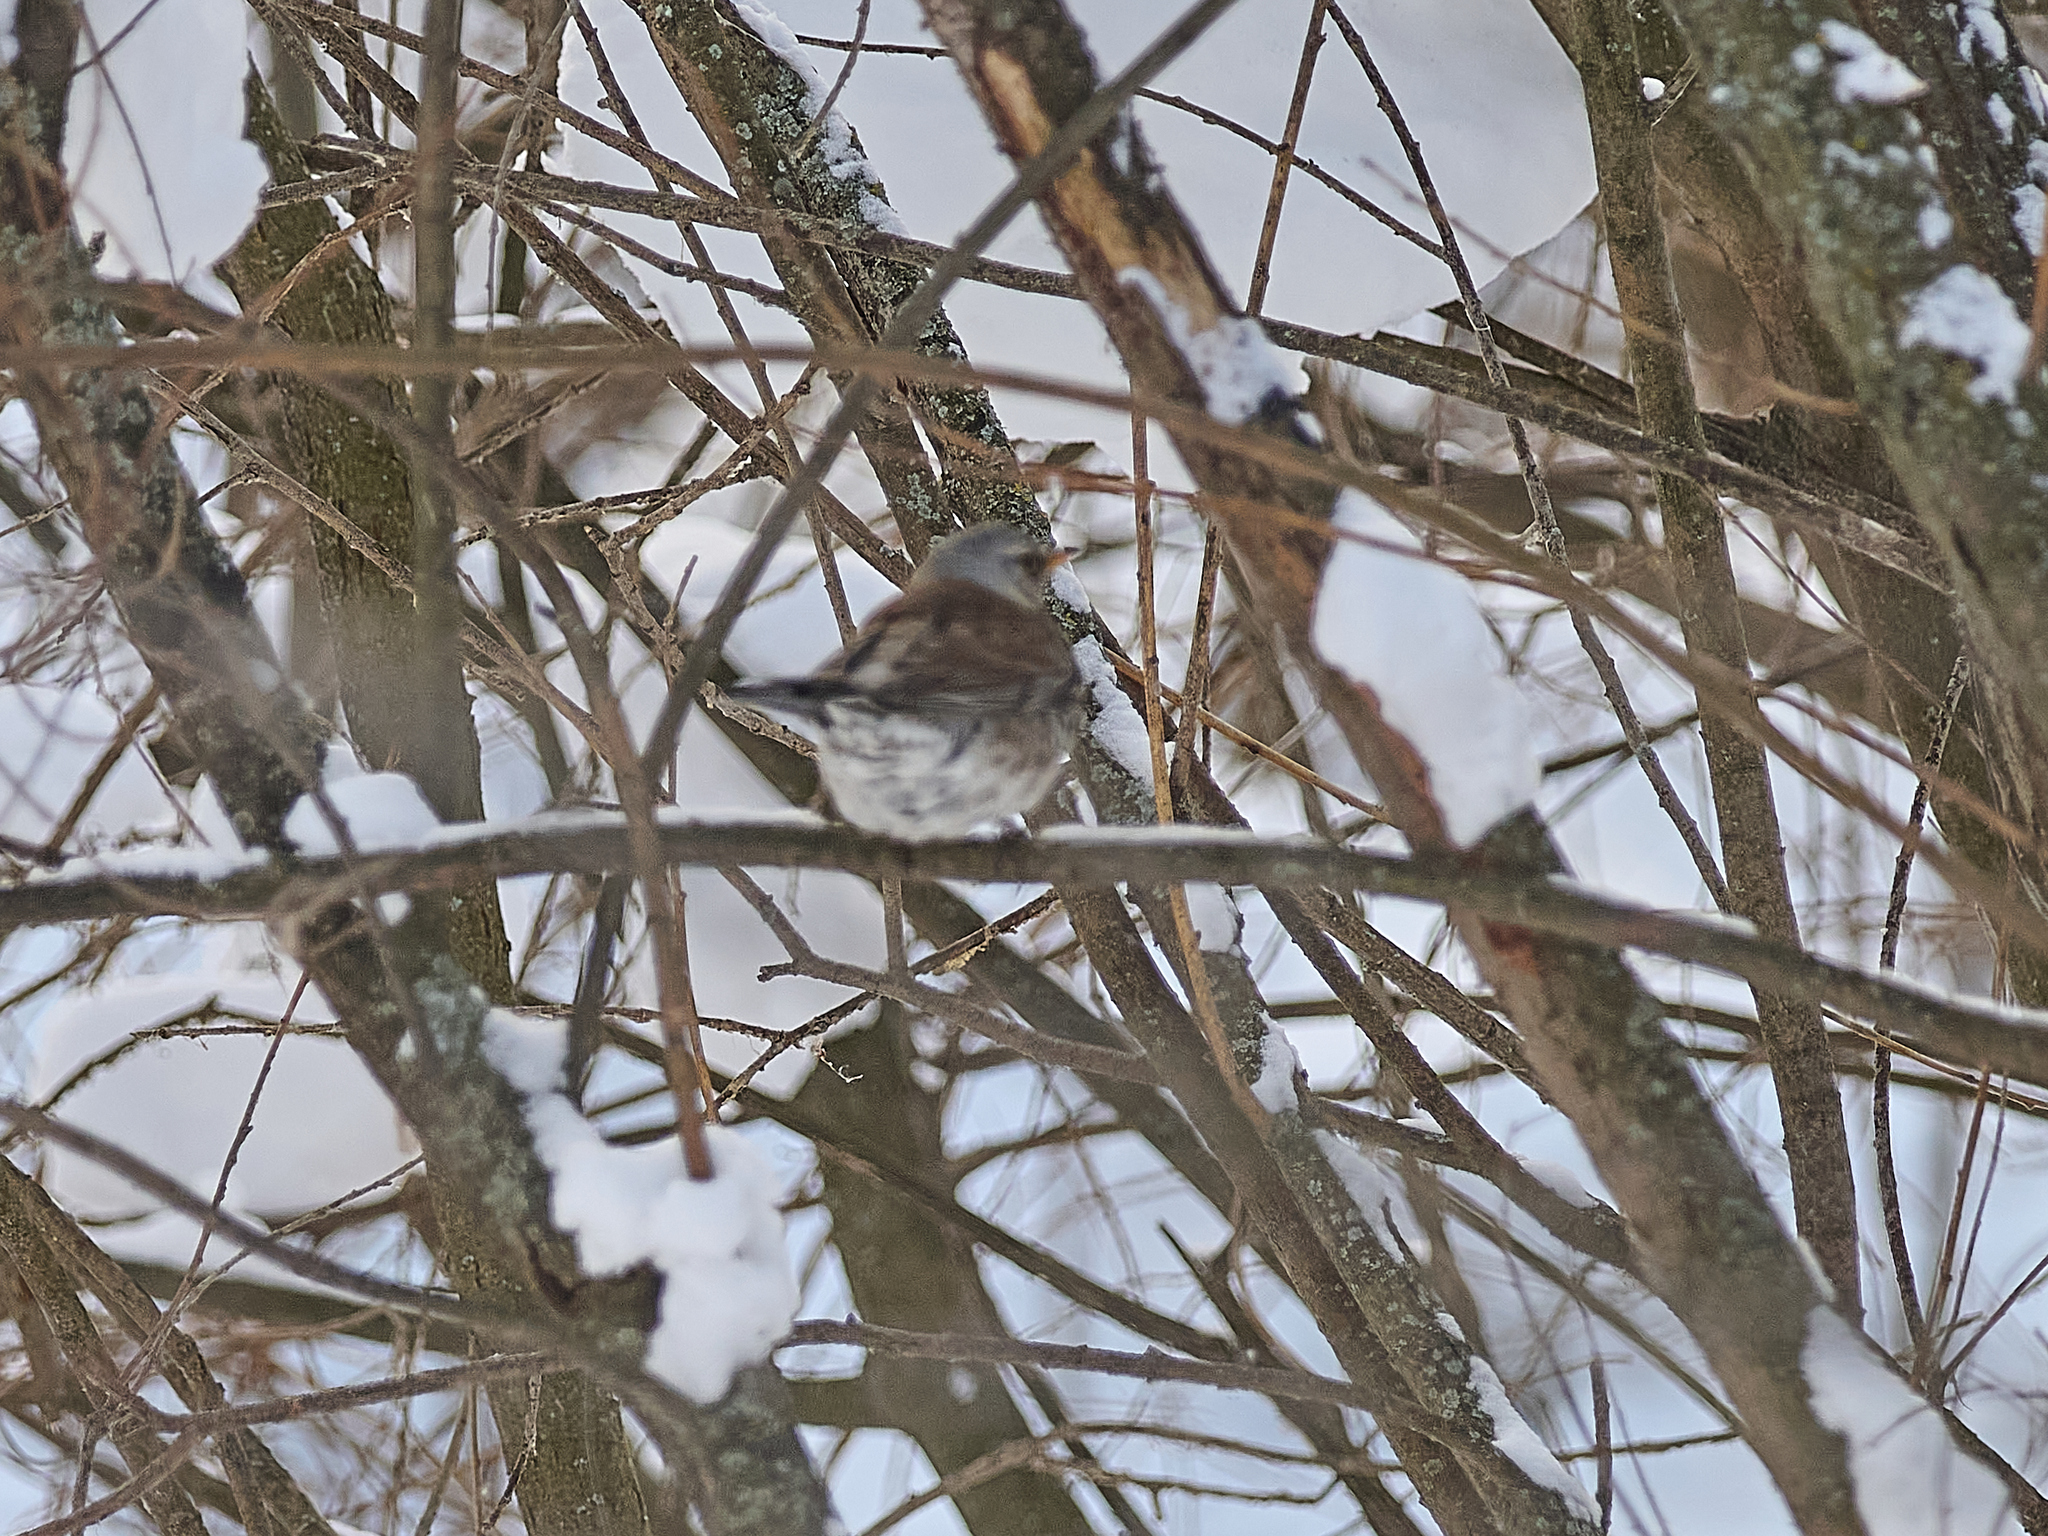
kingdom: Animalia
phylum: Chordata
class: Aves
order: Passeriformes
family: Turdidae
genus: Turdus
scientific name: Turdus pilaris
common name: Fieldfare
